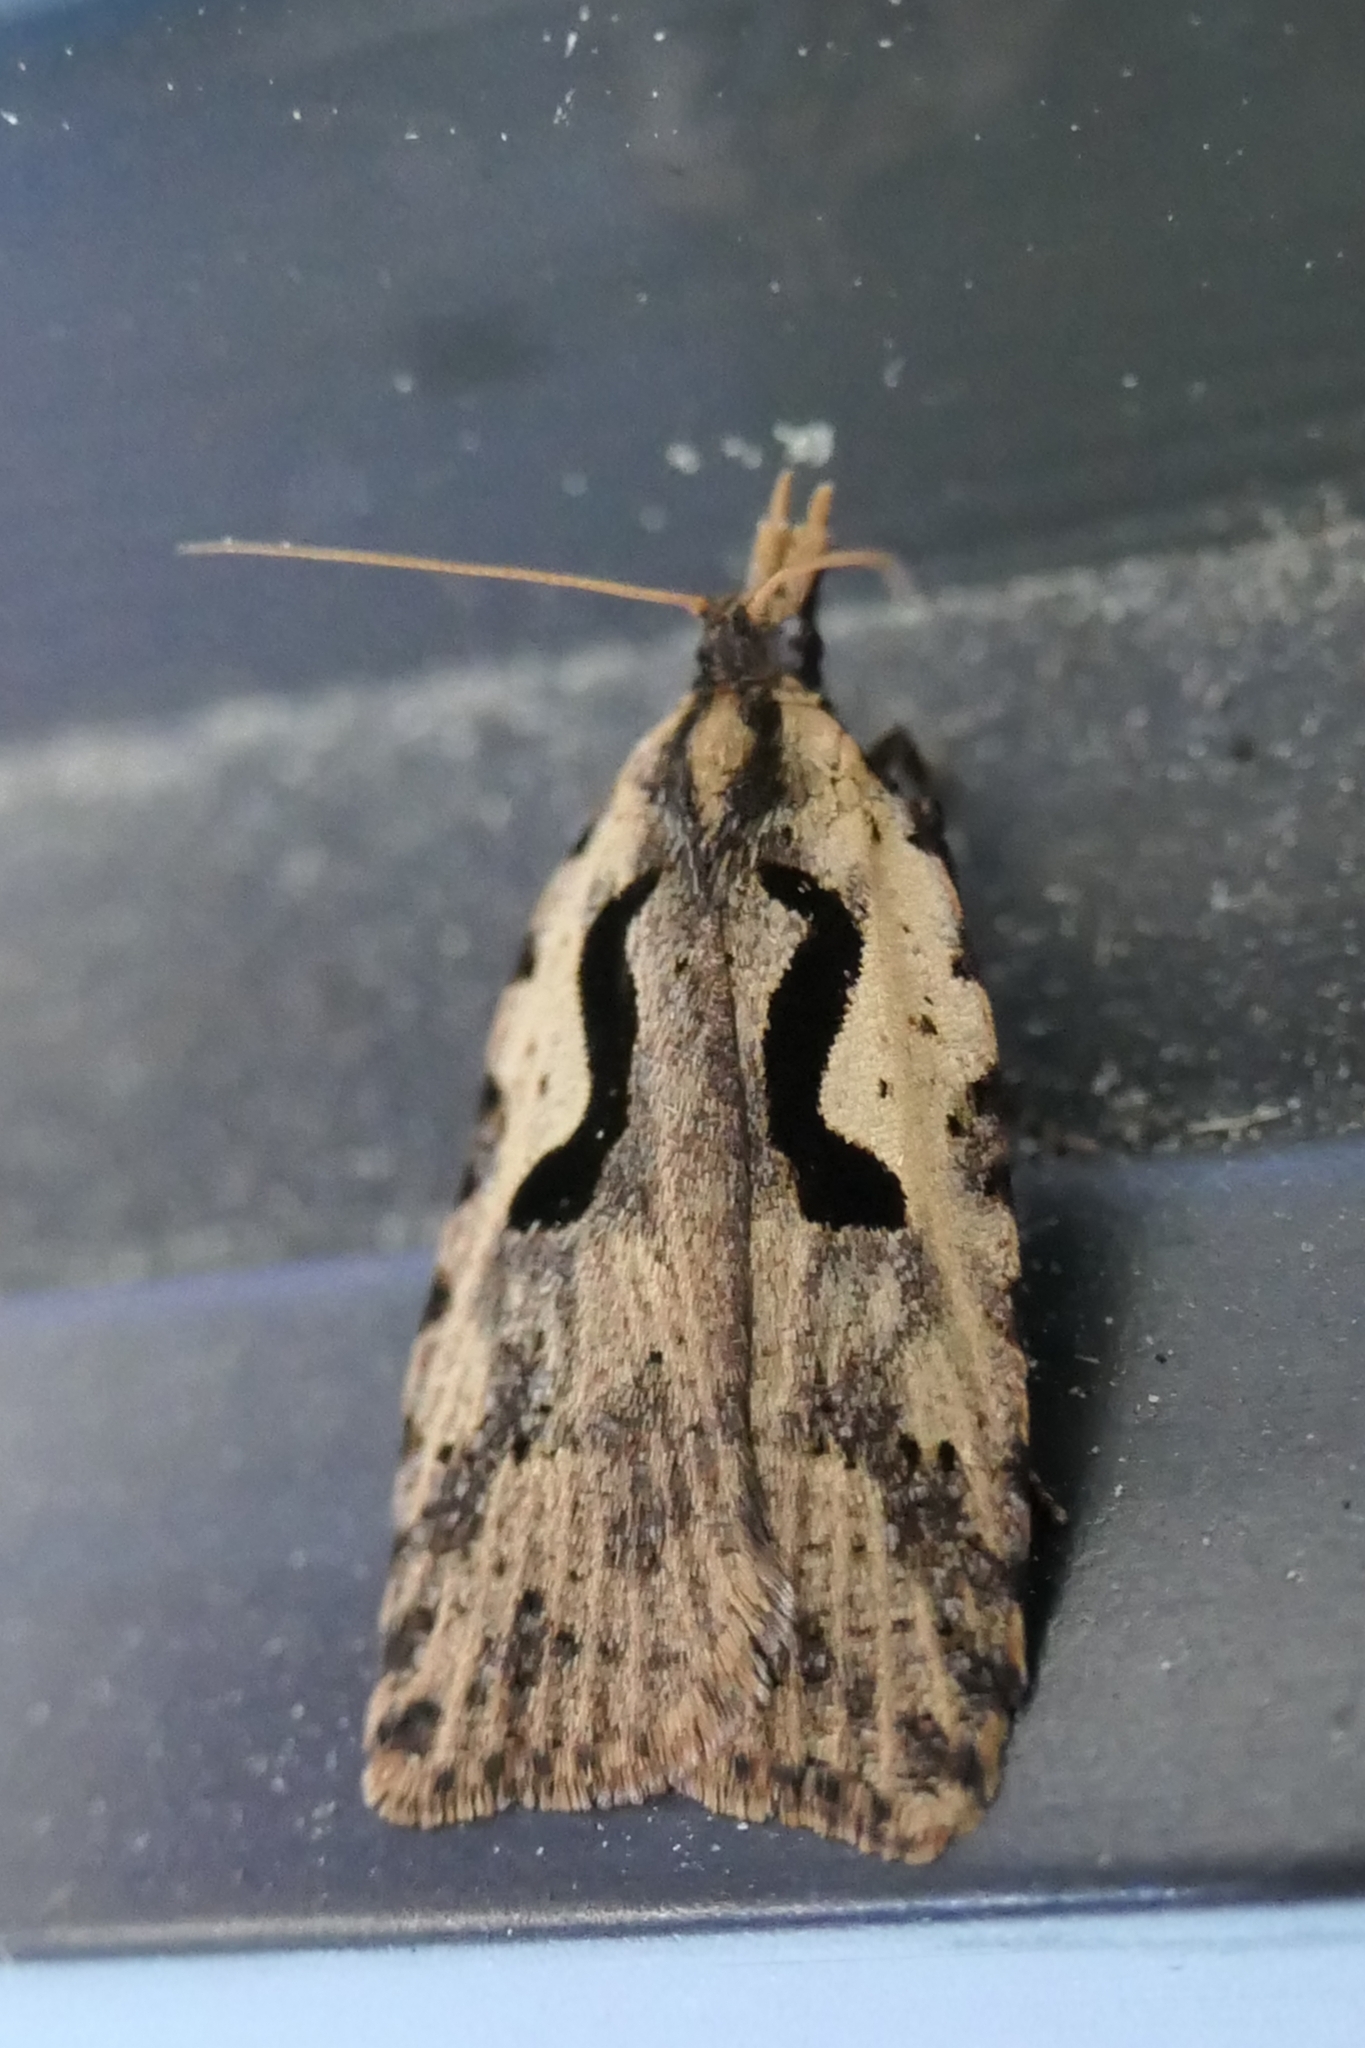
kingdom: Animalia
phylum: Arthropoda
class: Insecta
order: Lepidoptera
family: Tortricidae
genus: Cnephasia
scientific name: Cnephasia jactatana
